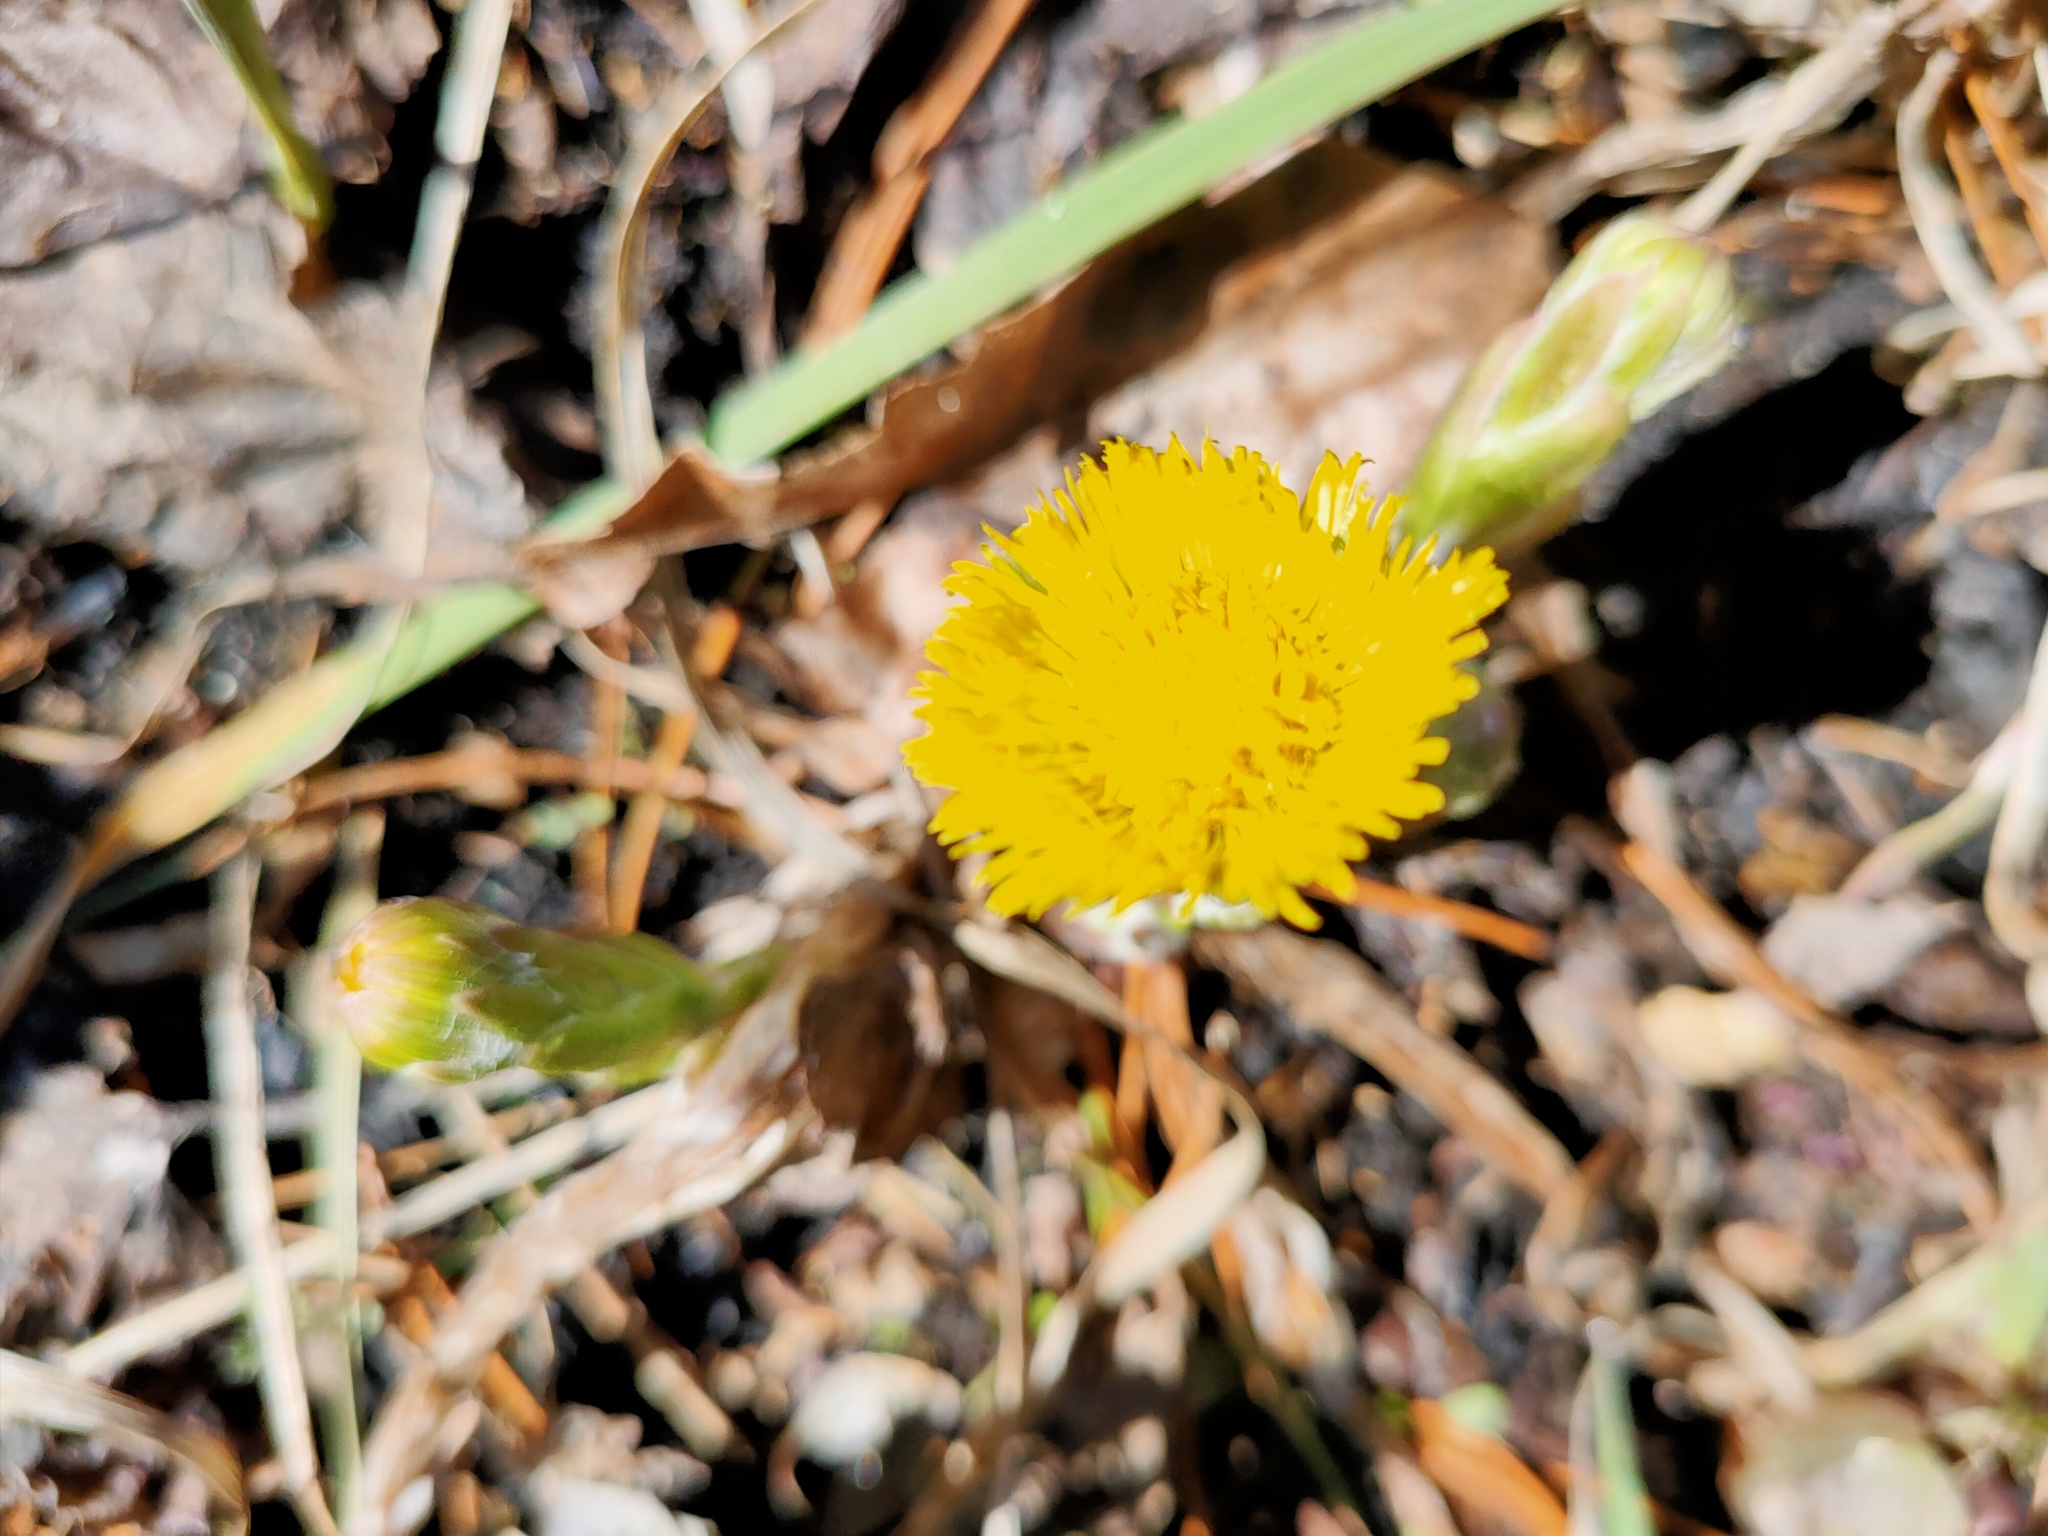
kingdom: Plantae
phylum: Tracheophyta
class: Magnoliopsida
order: Asterales
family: Asteraceae
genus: Tussilago
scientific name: Tussilago farfara
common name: Coltsfoot
